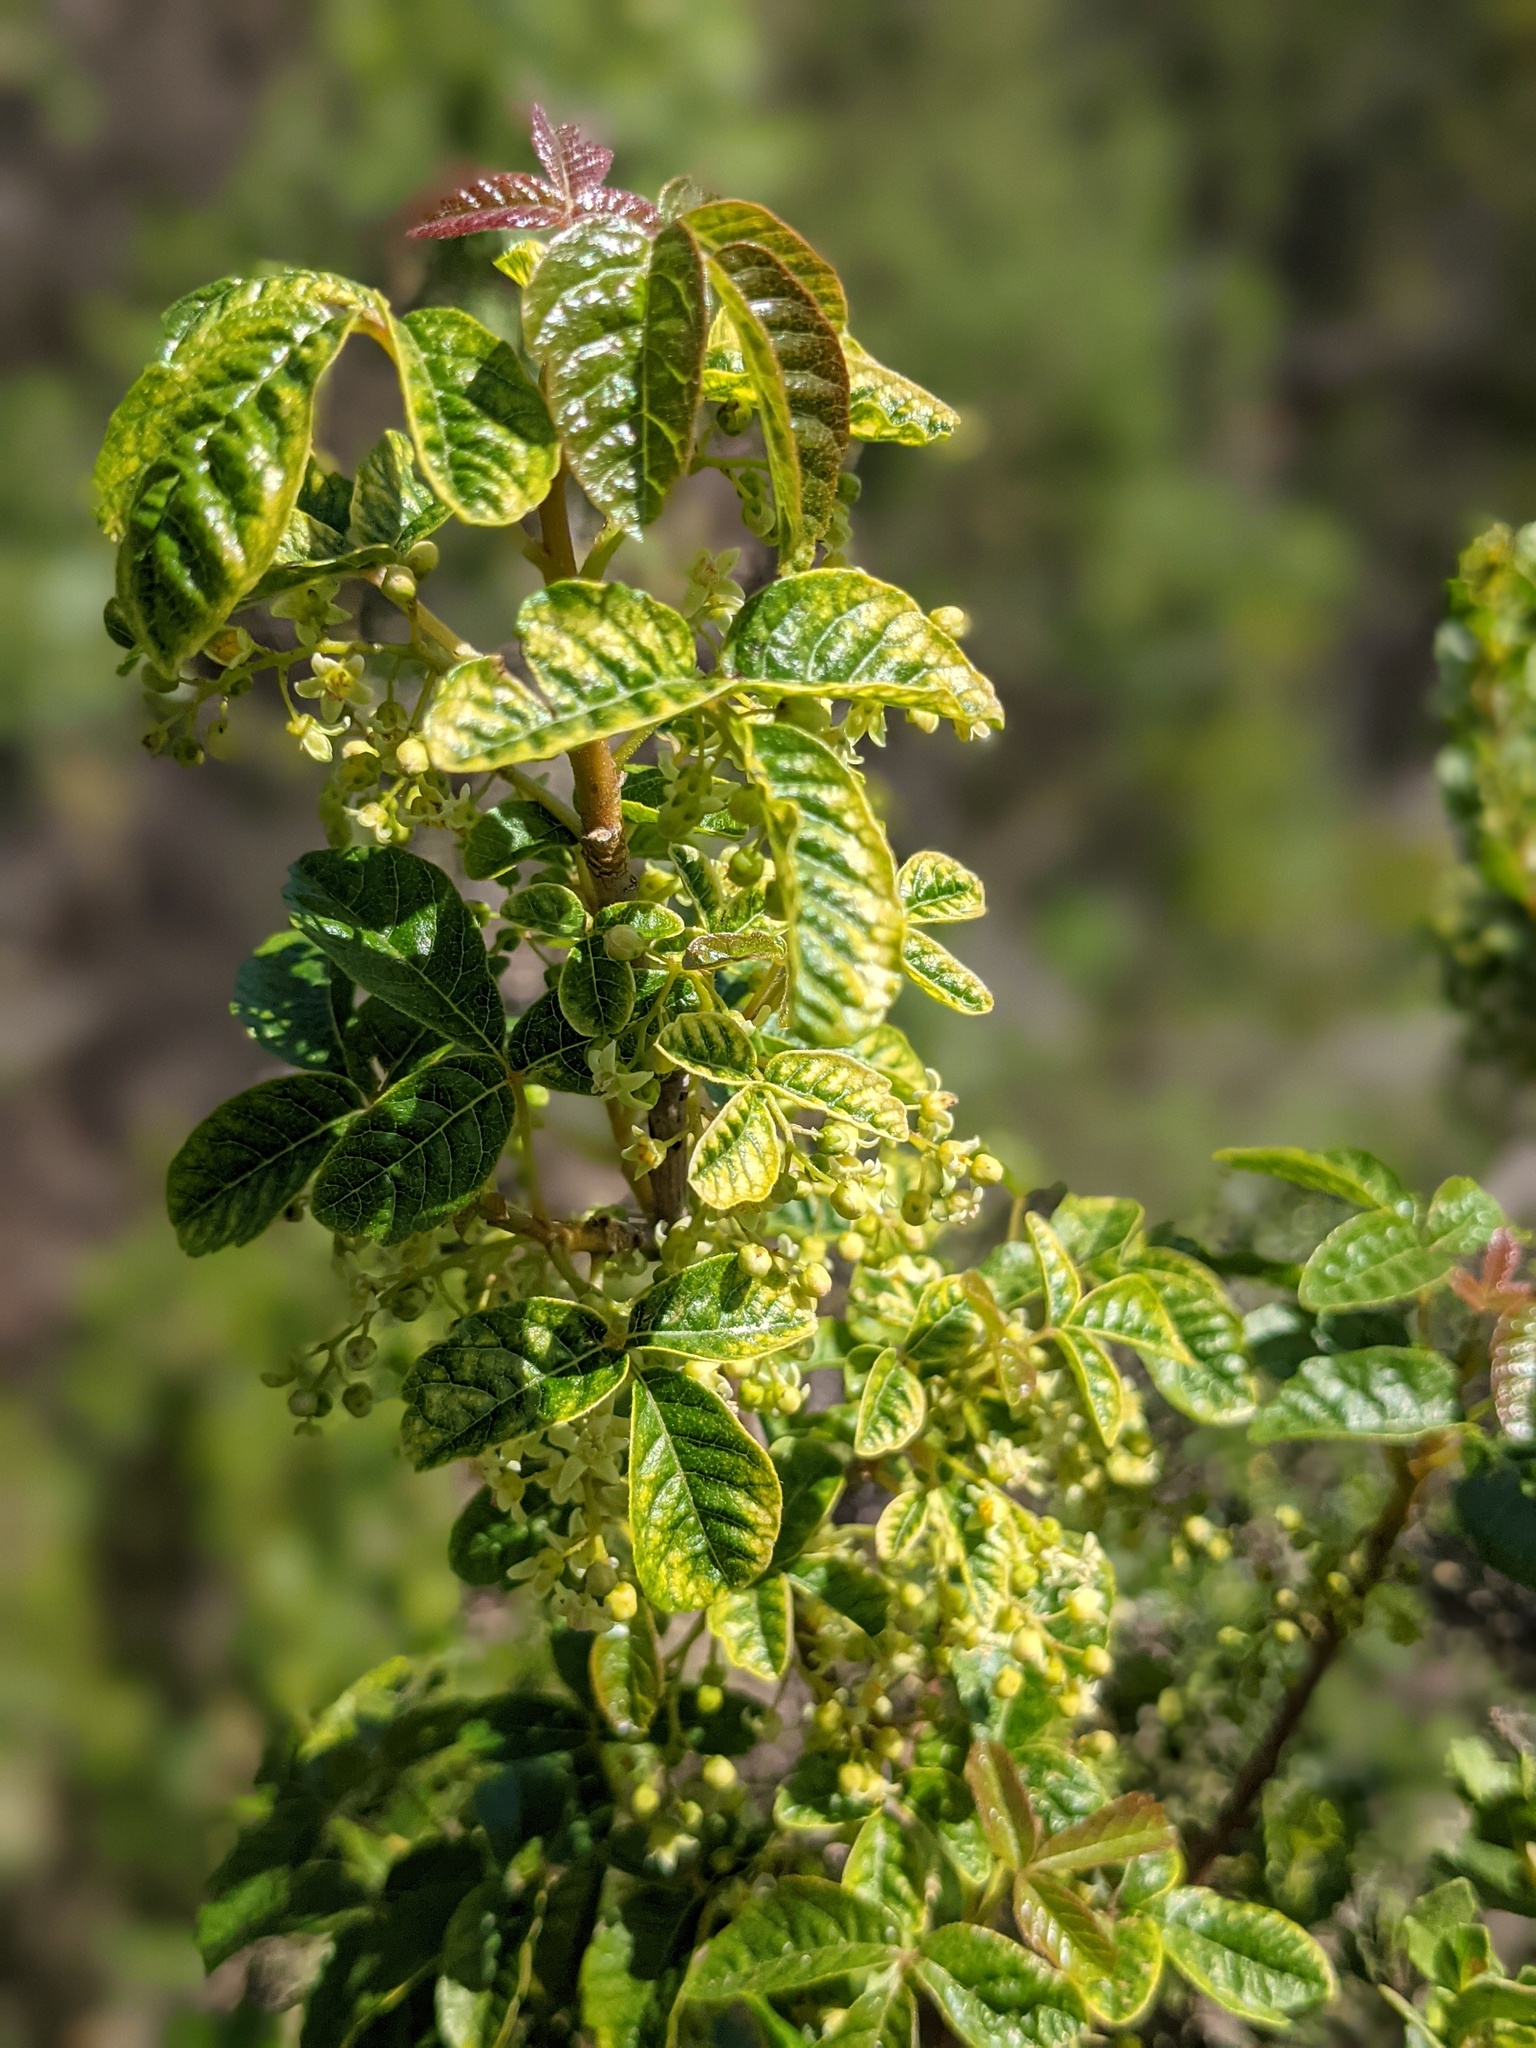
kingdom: Plantae
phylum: Tracheophyta
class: Magnoliopsida
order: Sapindales
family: Anacardiaceae
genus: Toxicodendron
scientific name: Toxicodendron diversilobum
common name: Pacific poison-oak
